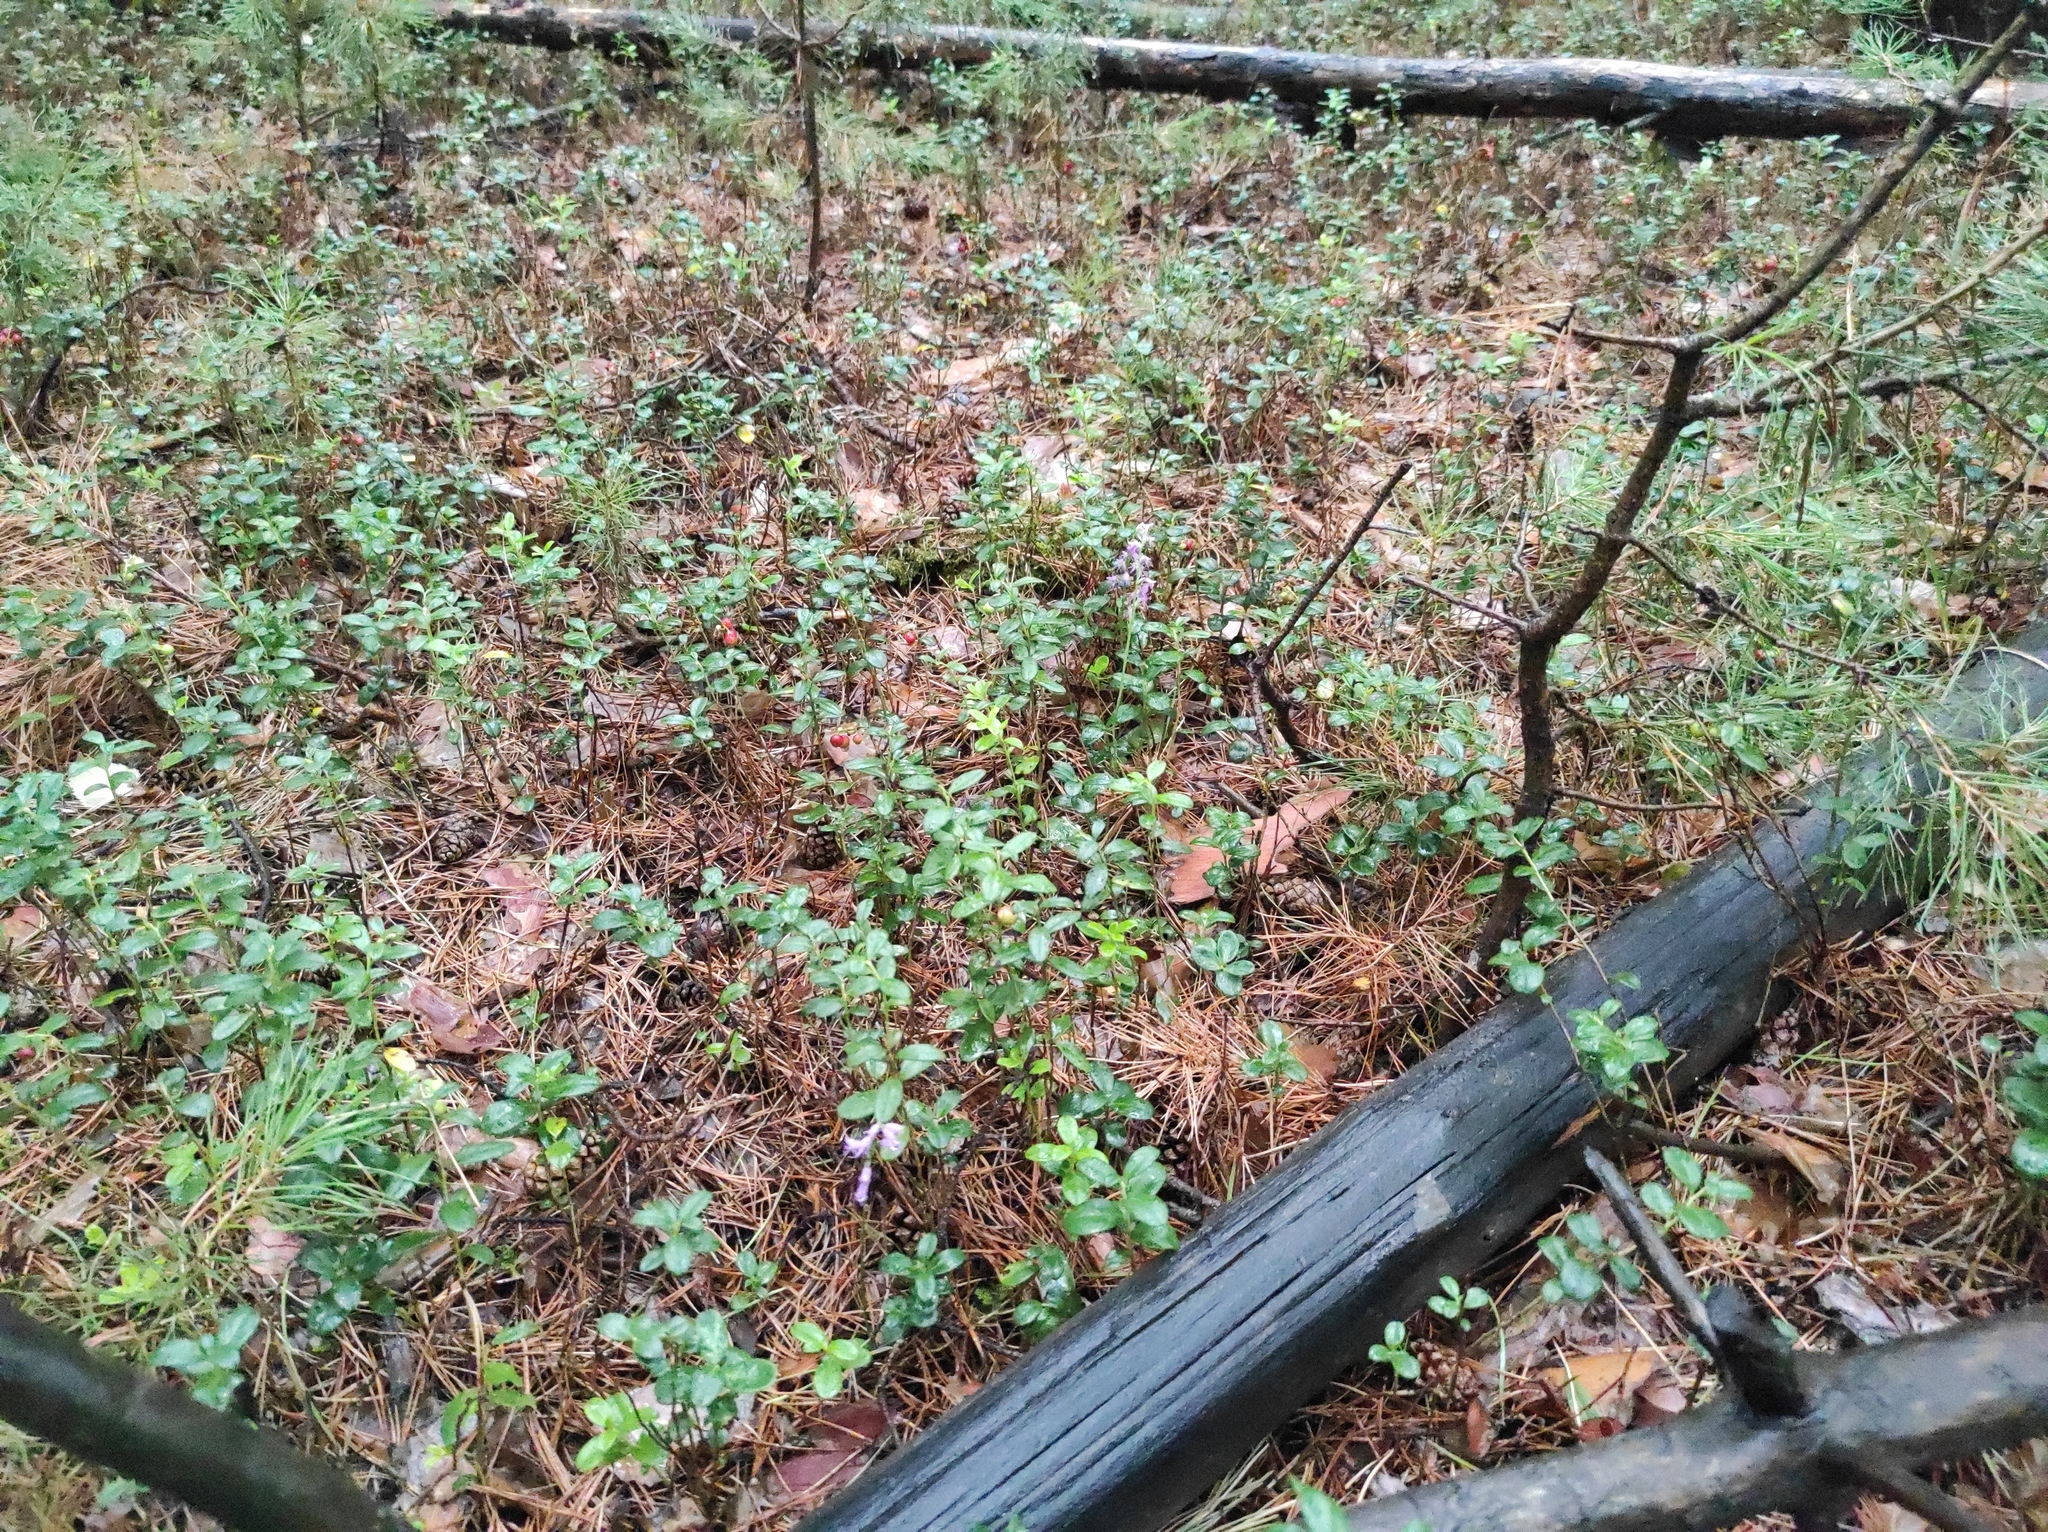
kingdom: Plantae
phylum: Tracheophyta
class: Magnoliopsida
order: Ericales
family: Ericaceae
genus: Vaccinium
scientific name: Vaccinium vitis-idaea
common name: Cowberry
